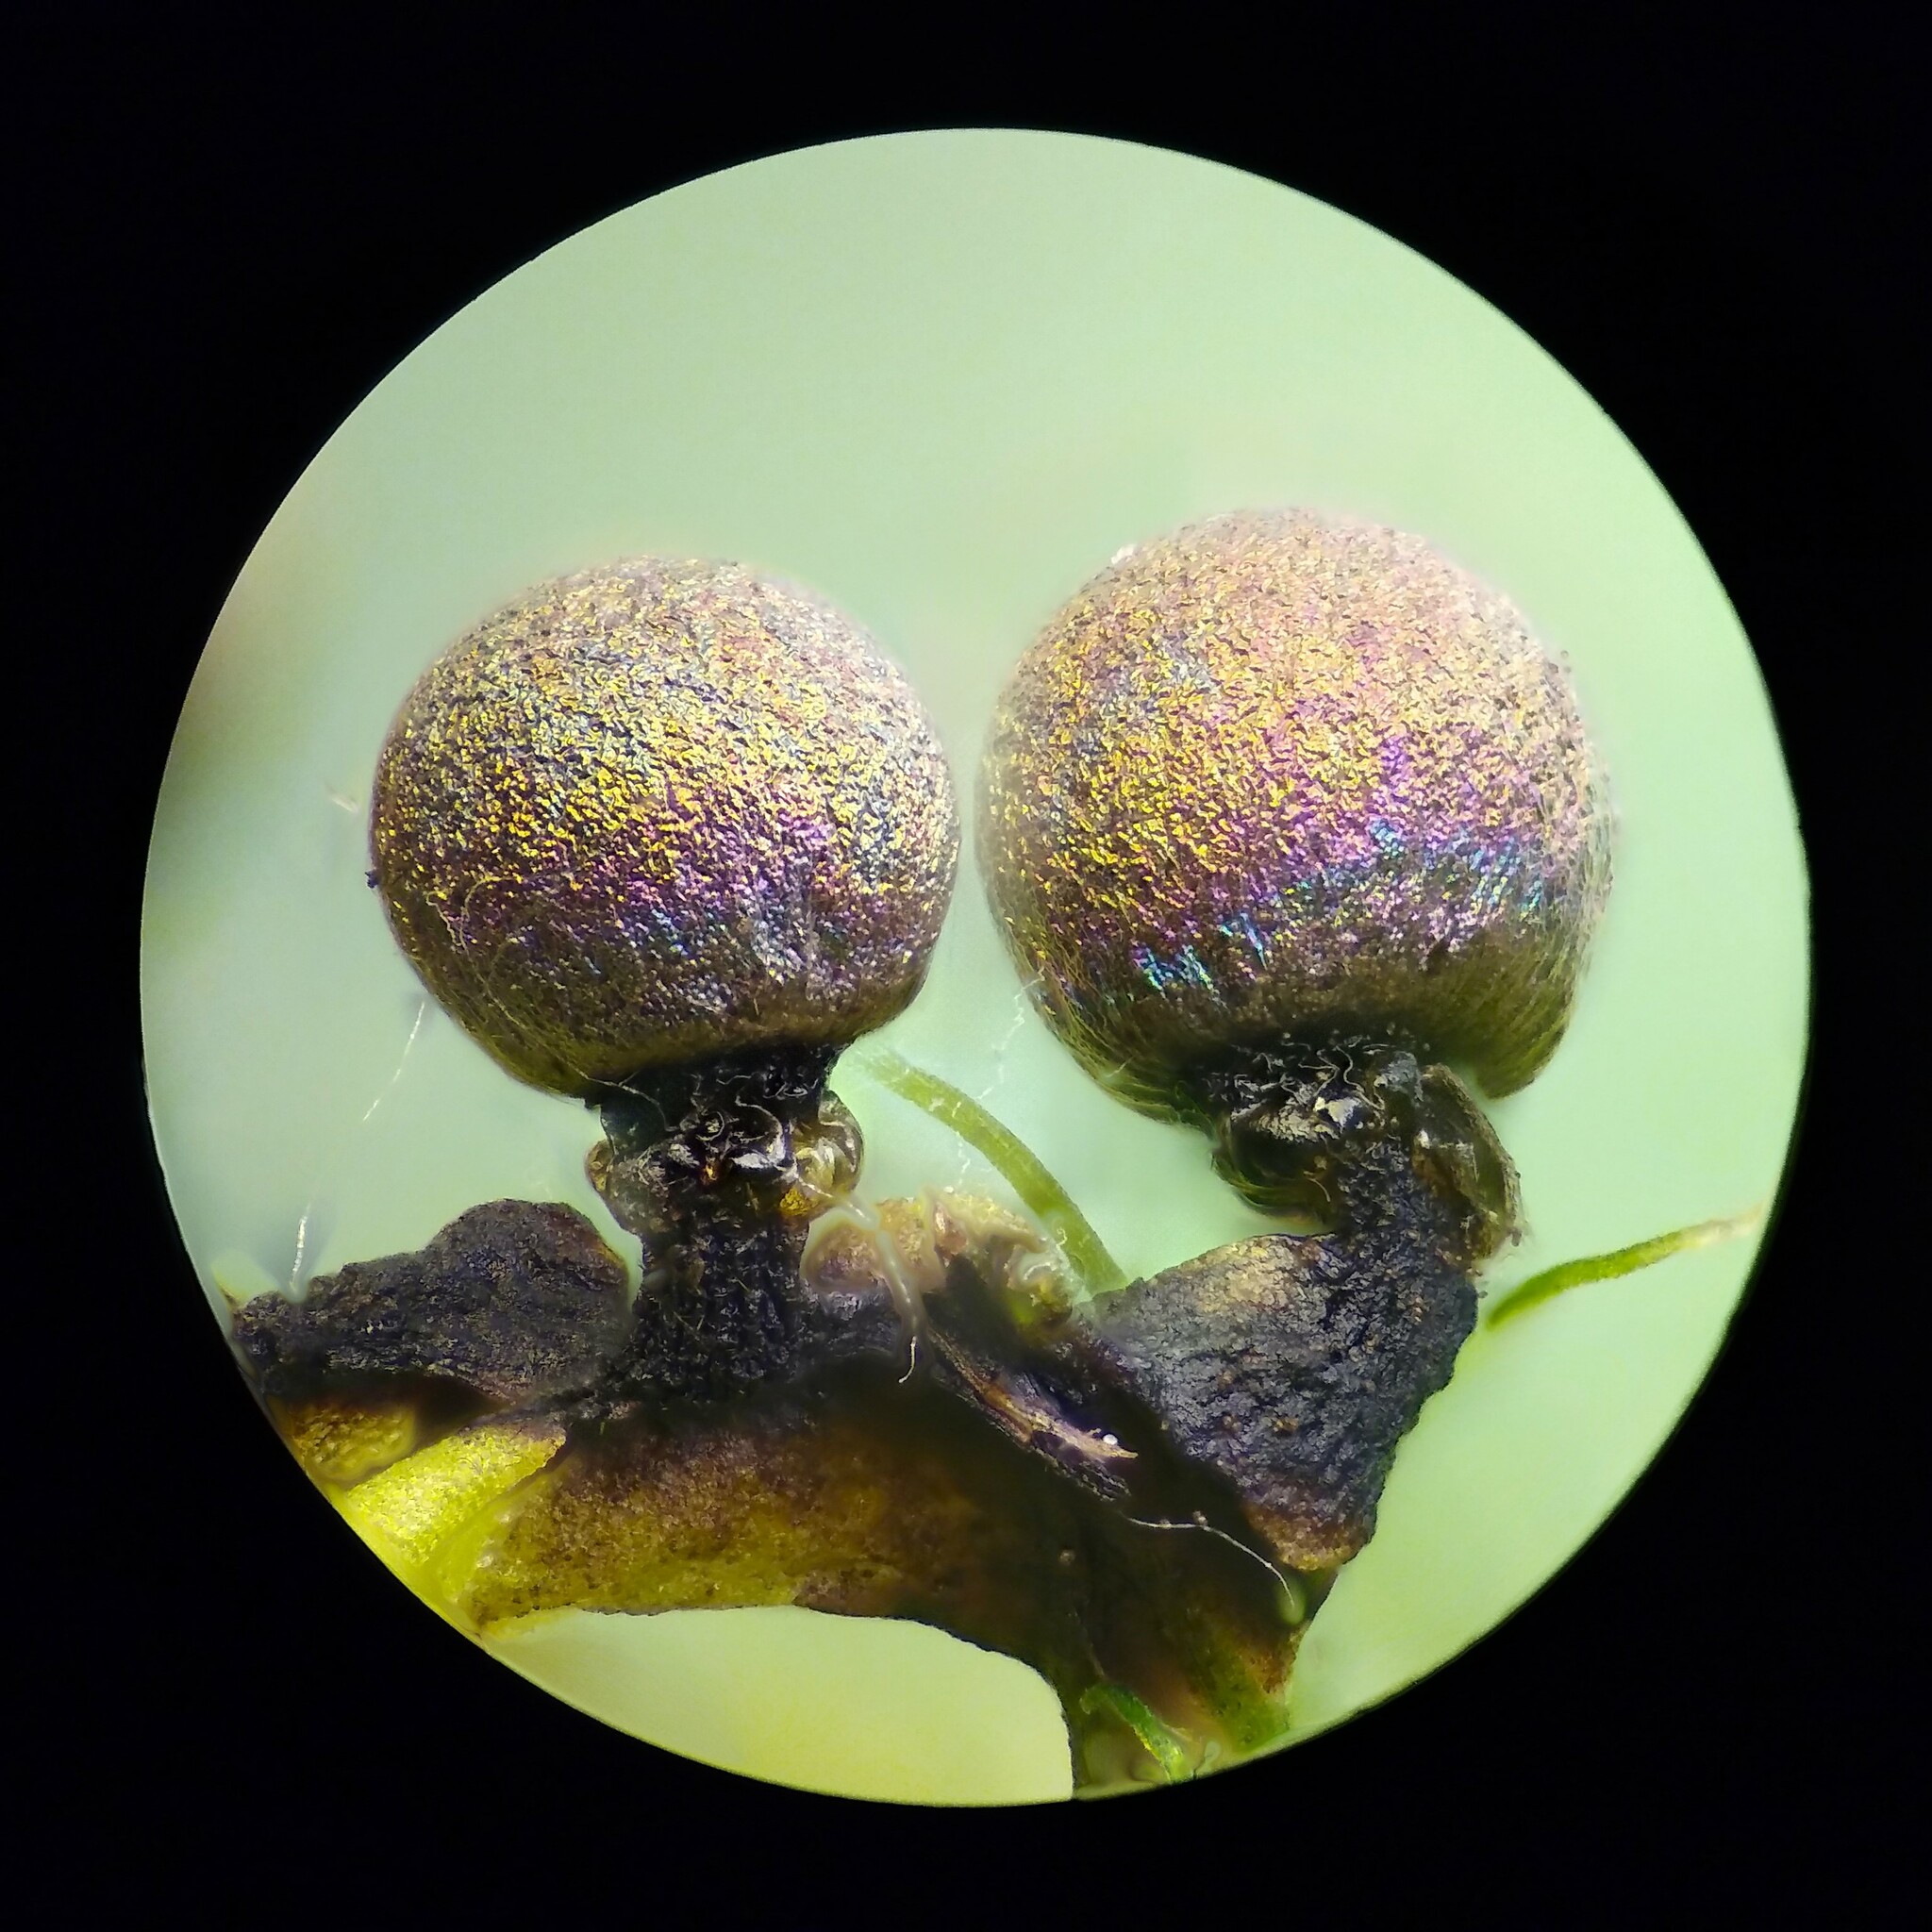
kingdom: Protozoa
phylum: Mycetozoa
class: Myxomycetes
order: Physarales
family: Elaeomyxaceae
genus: Elaeomyxa
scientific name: Elaeomyxa cerifera
